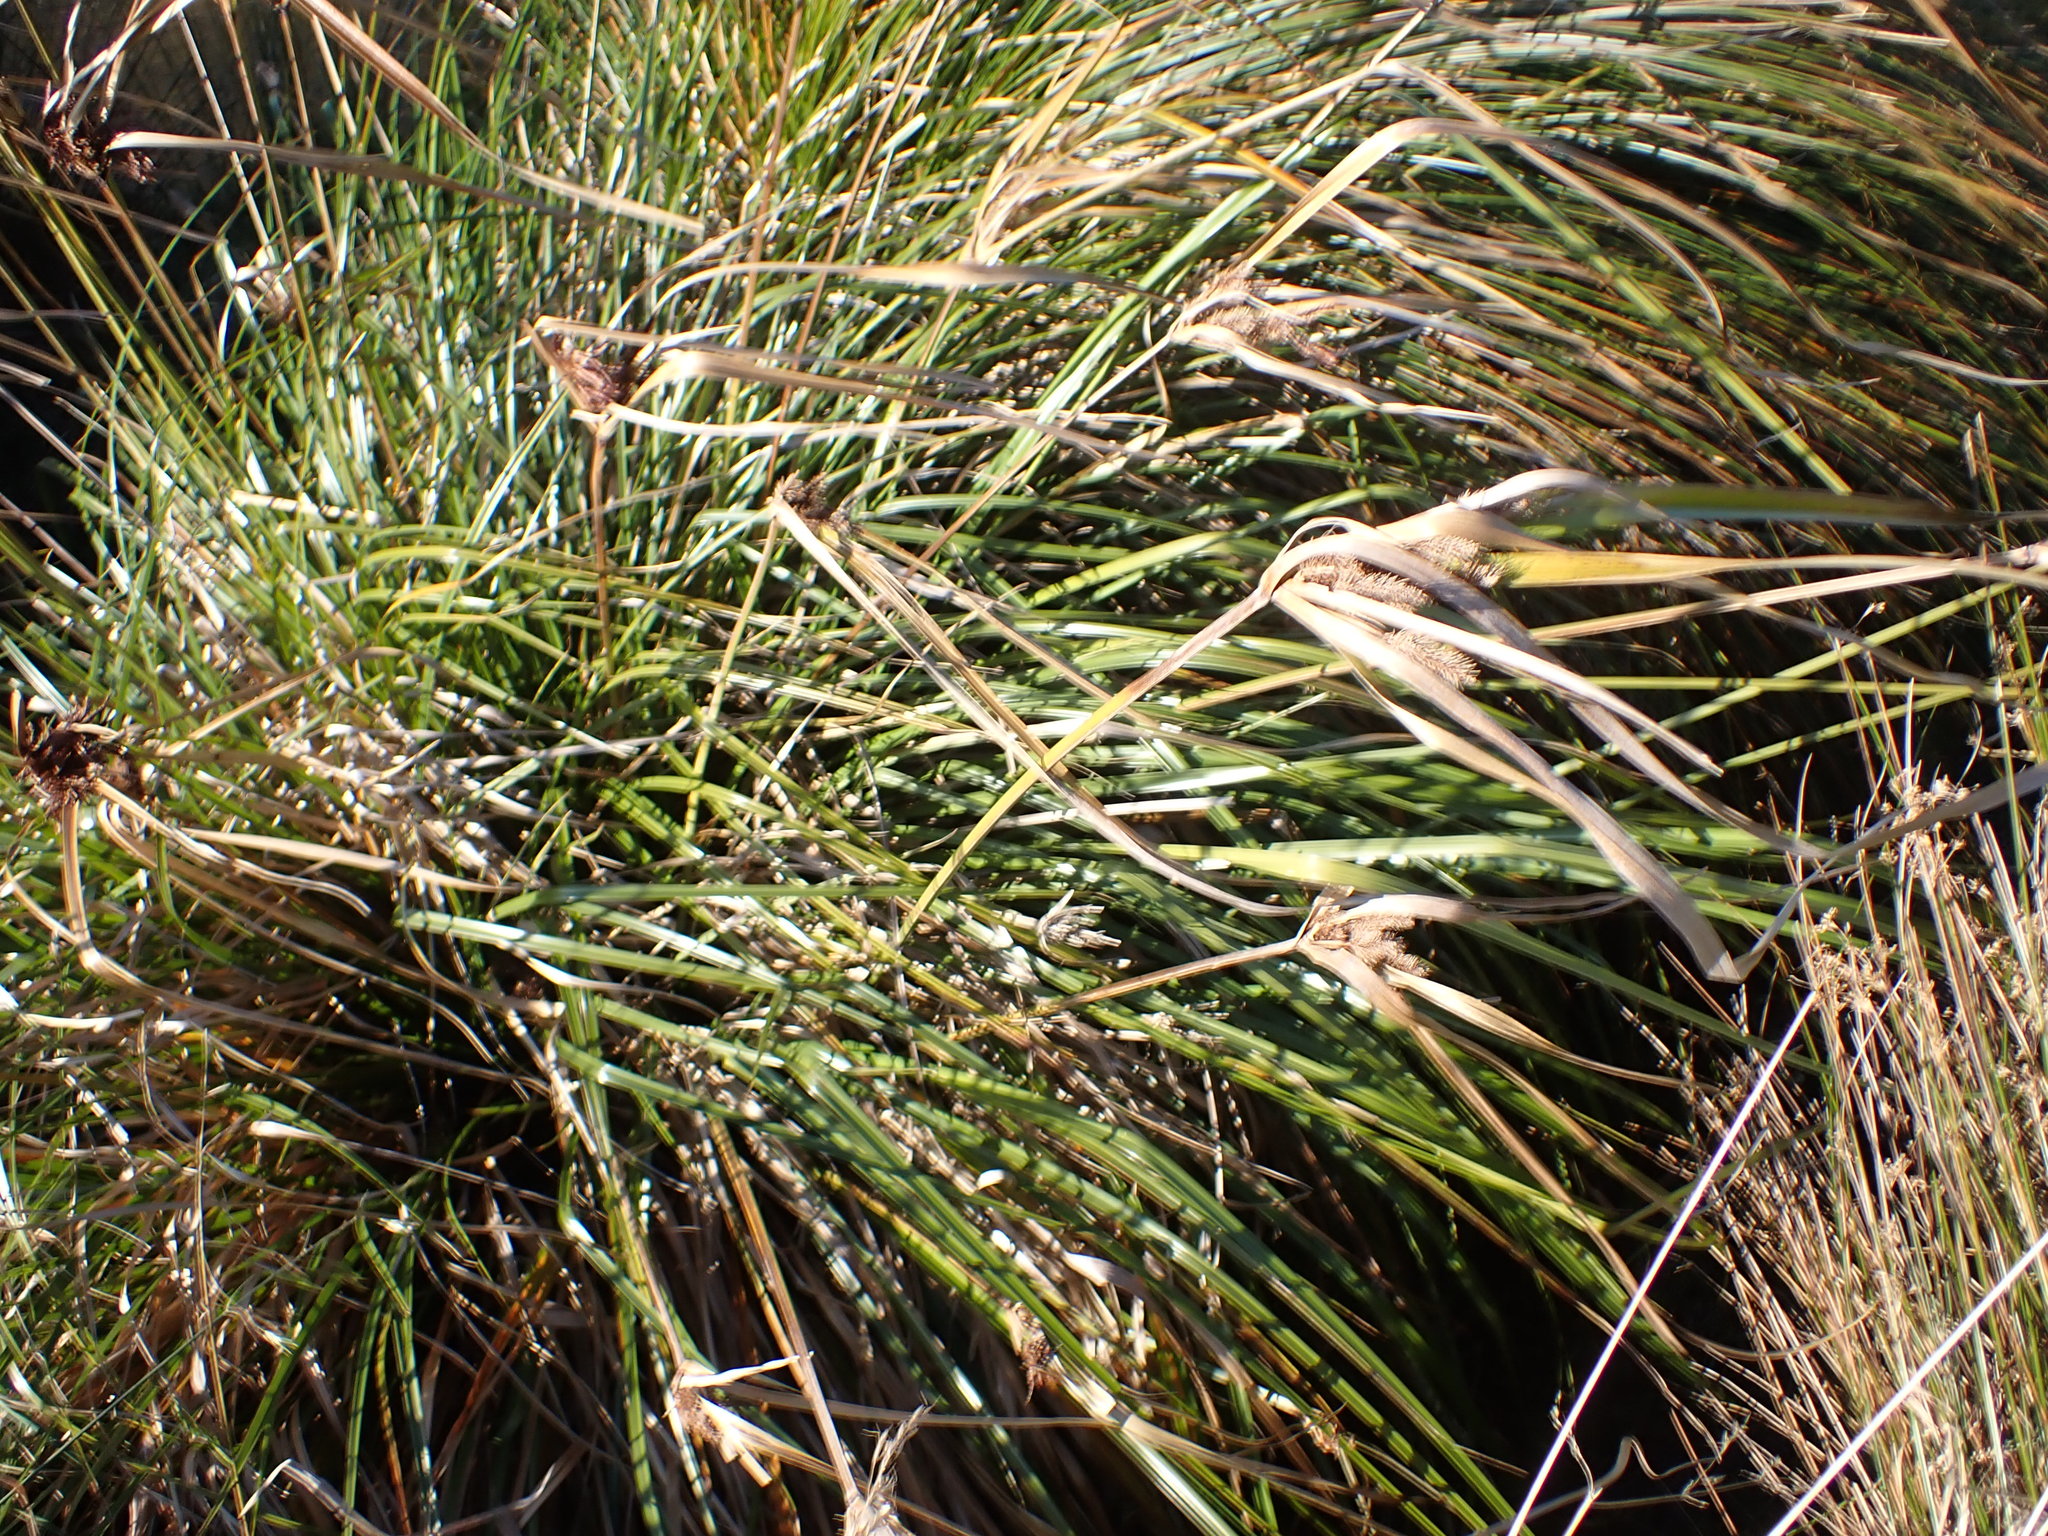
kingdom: Plantae
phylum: Tracheophyta
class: Liliopsida
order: Poales
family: Cyperaceae
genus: Cyperus
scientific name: Cyperus ustulatus
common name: Giant umbrella-sedge
